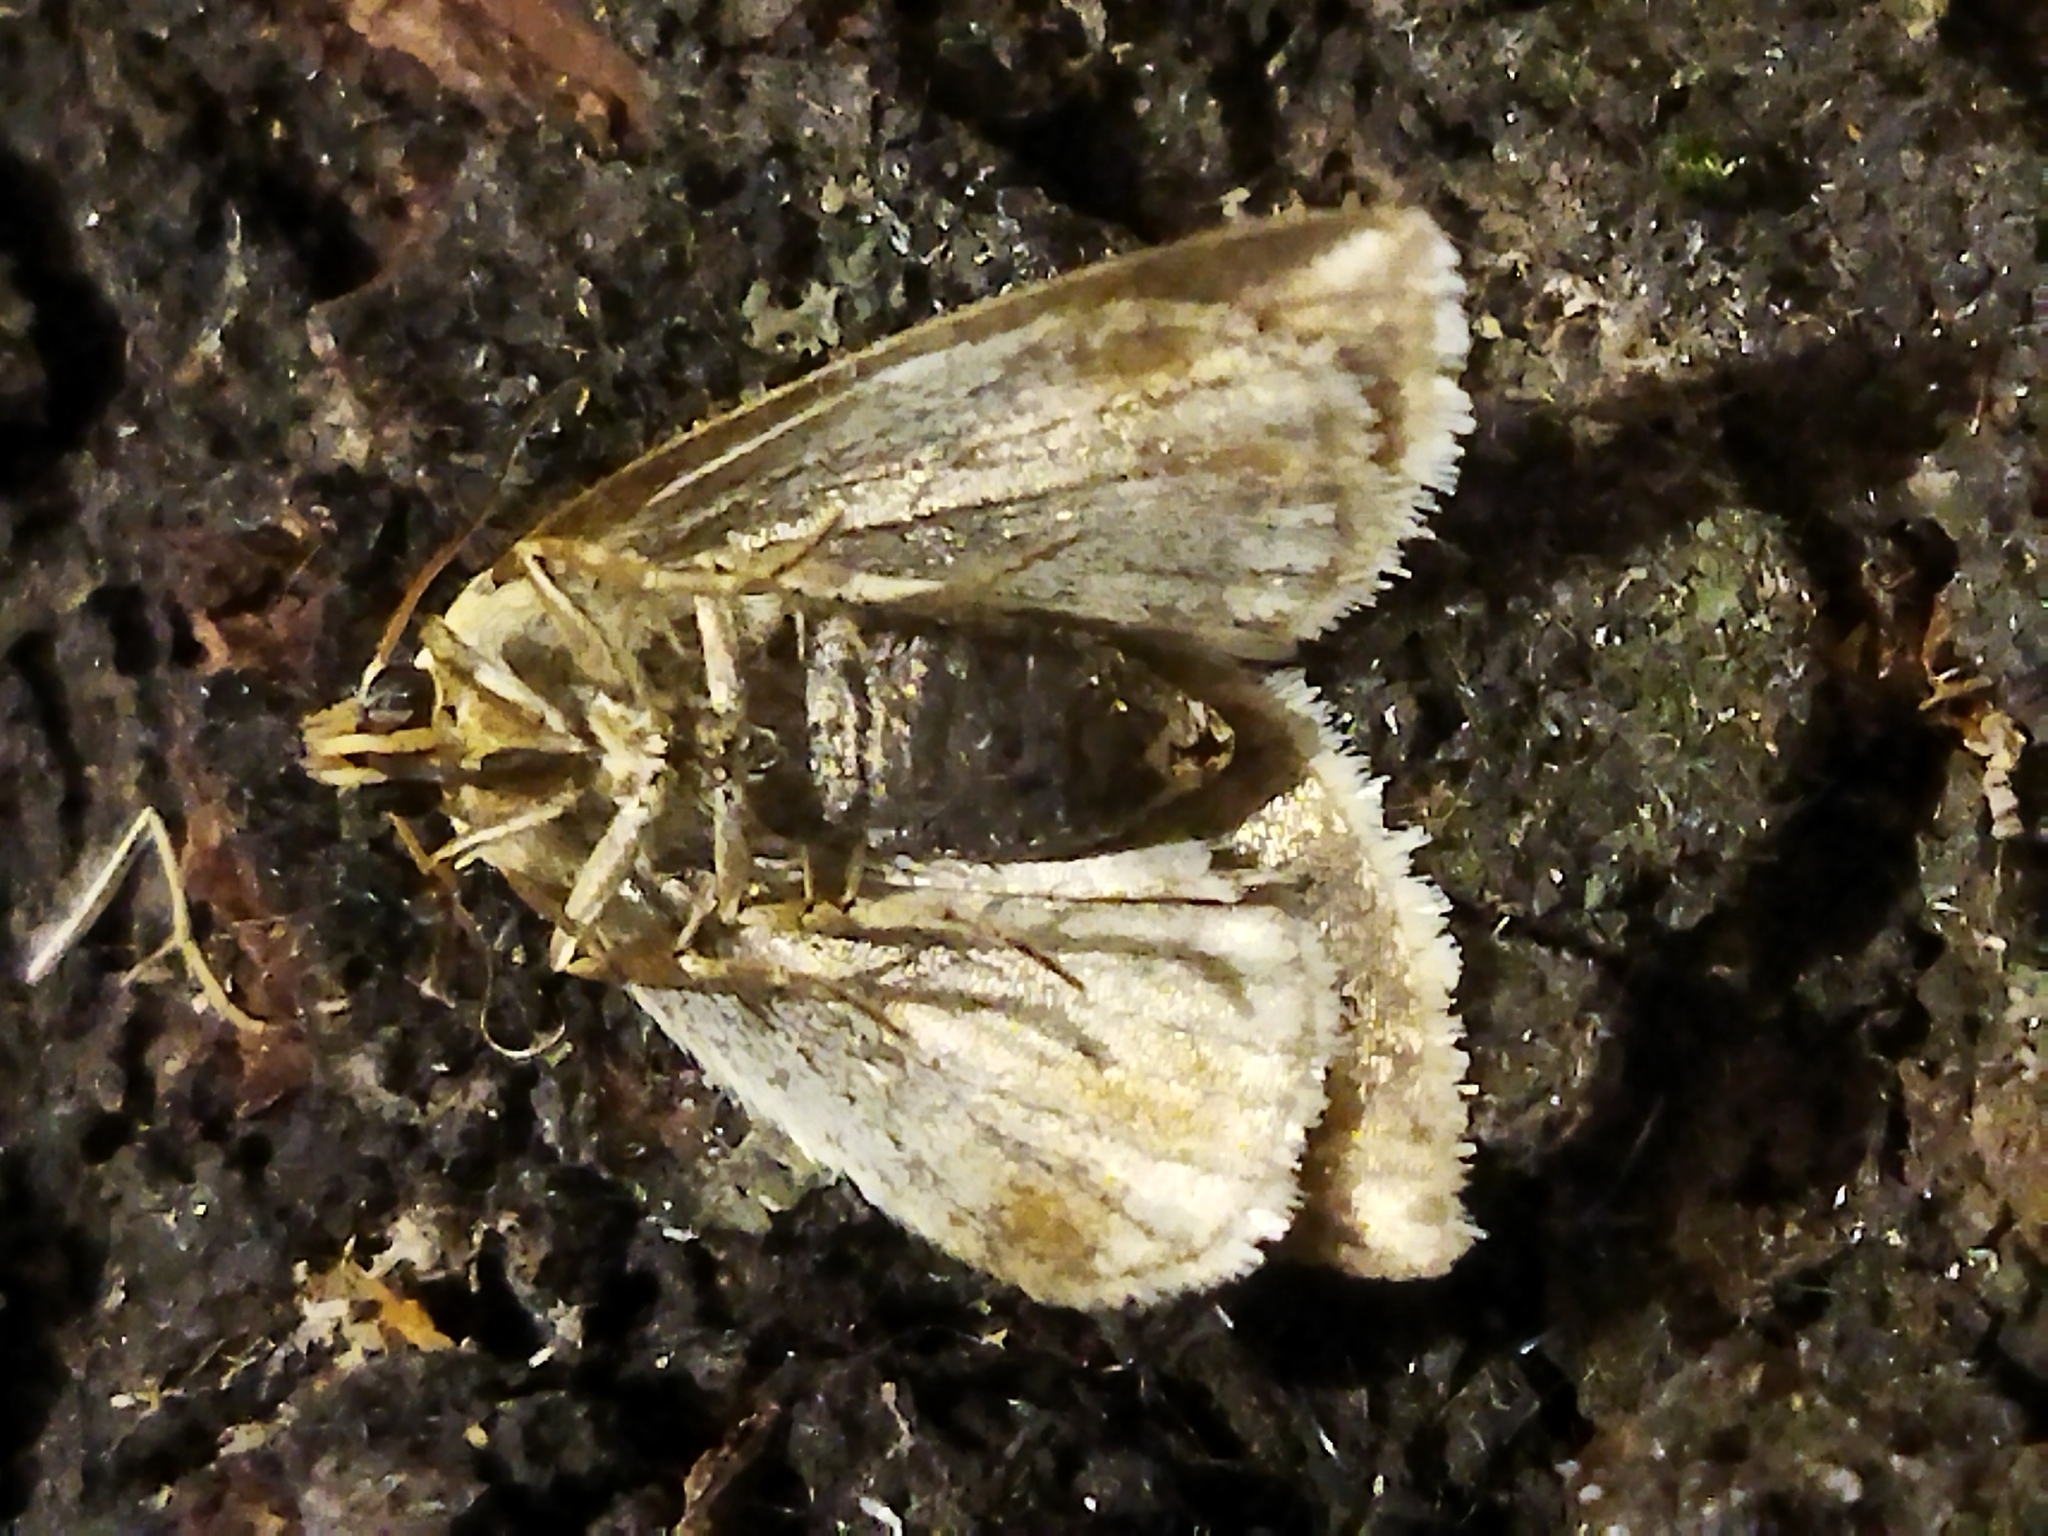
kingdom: Animalia
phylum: Arthropoda
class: Insecta
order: Lepidoptera
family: Noctuidae
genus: Aegle
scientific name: Aegle kaekeritziana
